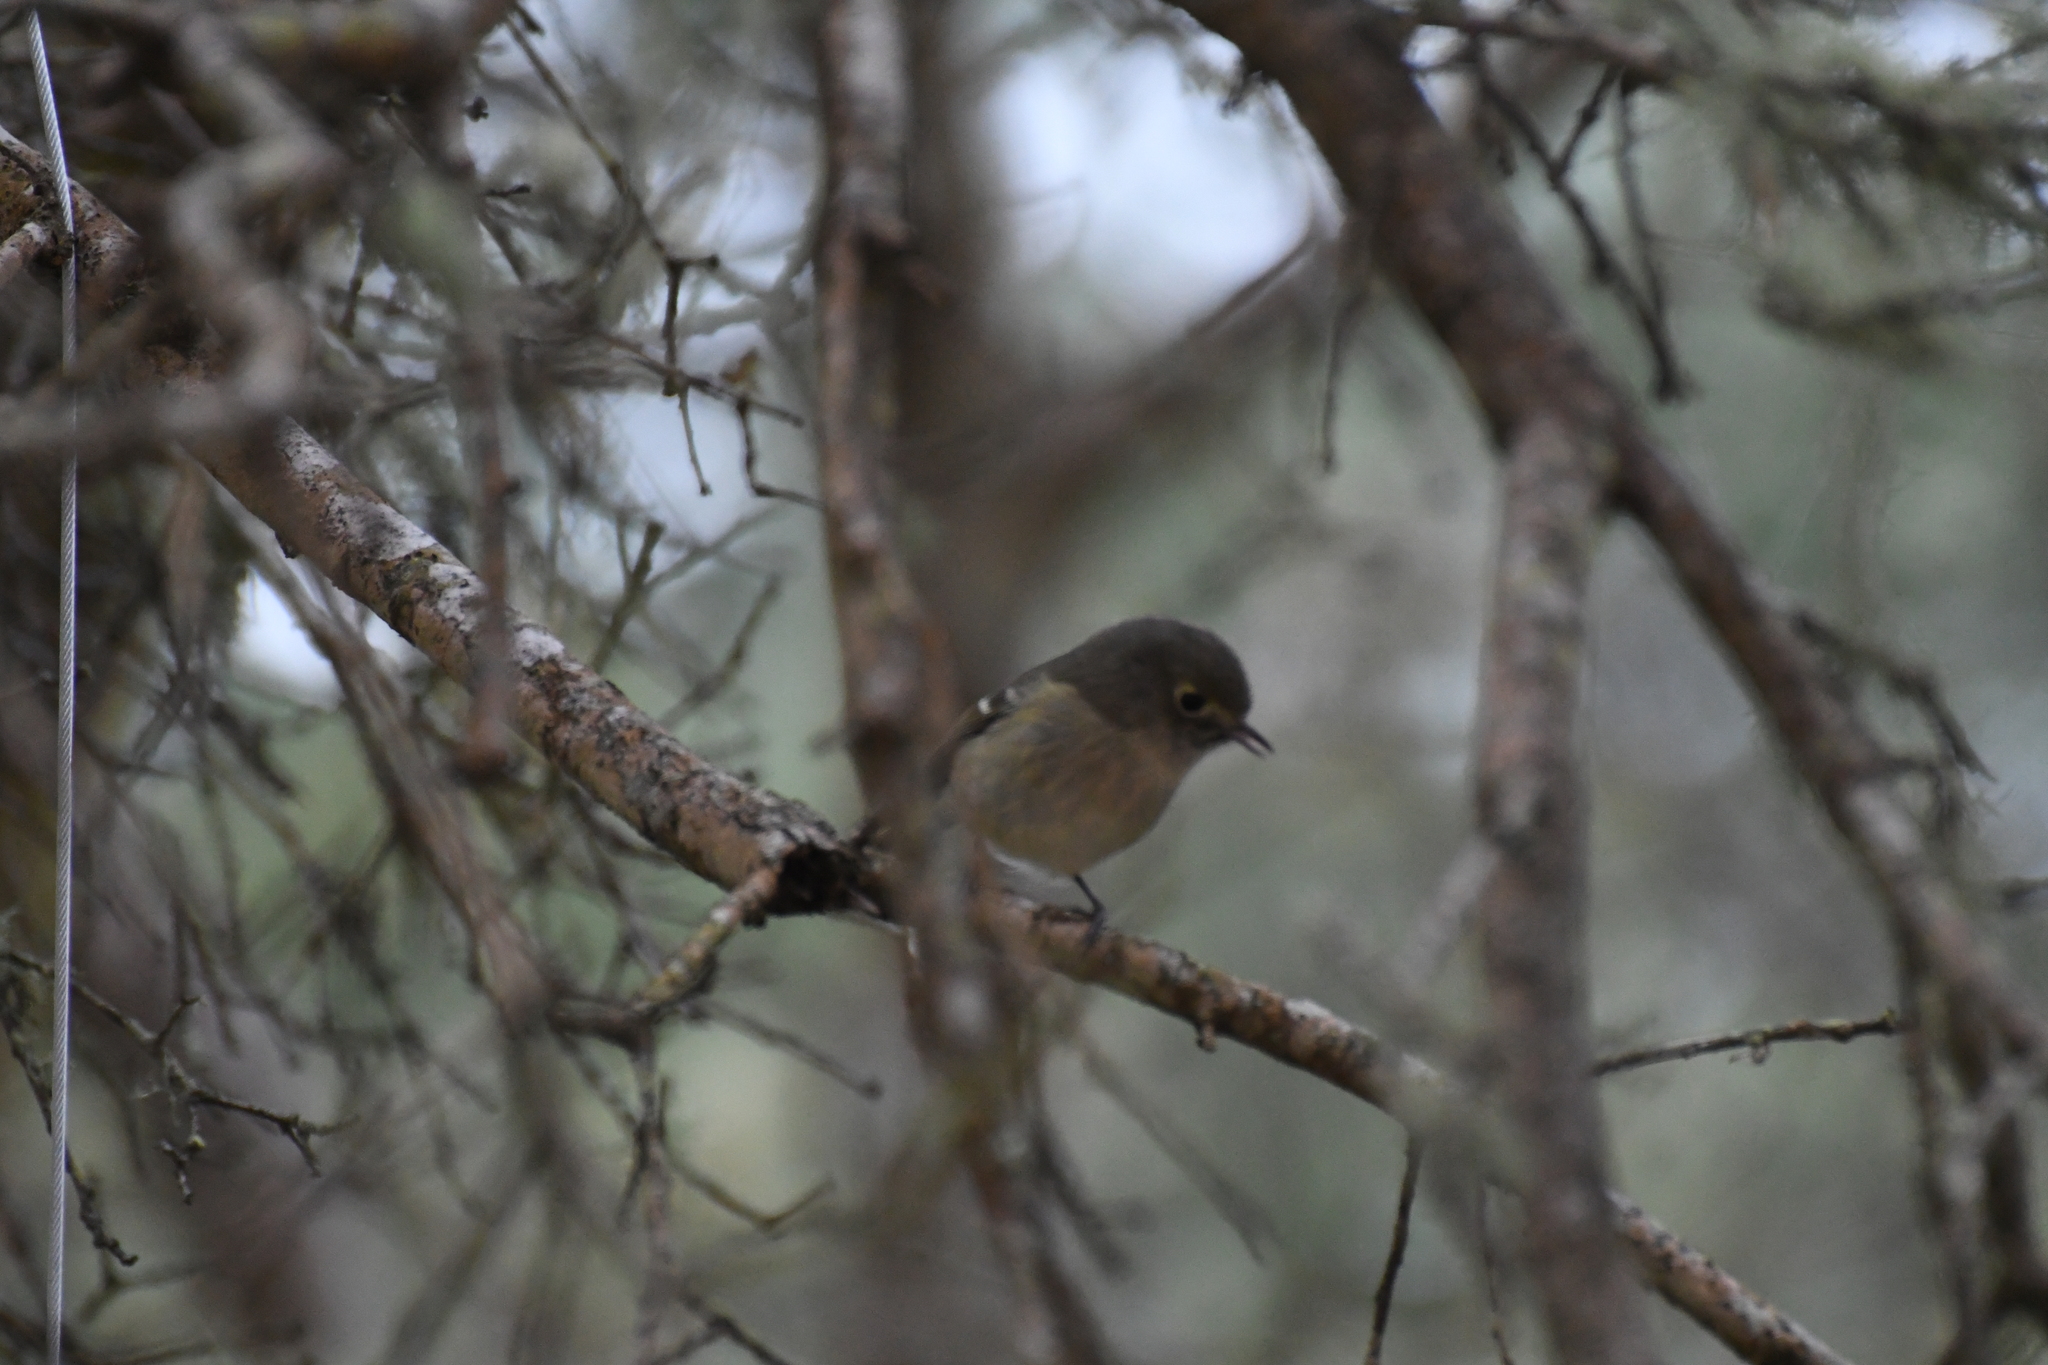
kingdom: Animalia
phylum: Chordata
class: Aves
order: Passeriformes
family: Vireonidae
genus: Vireo
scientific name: Vireo huttoni
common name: Hutton's vireo
